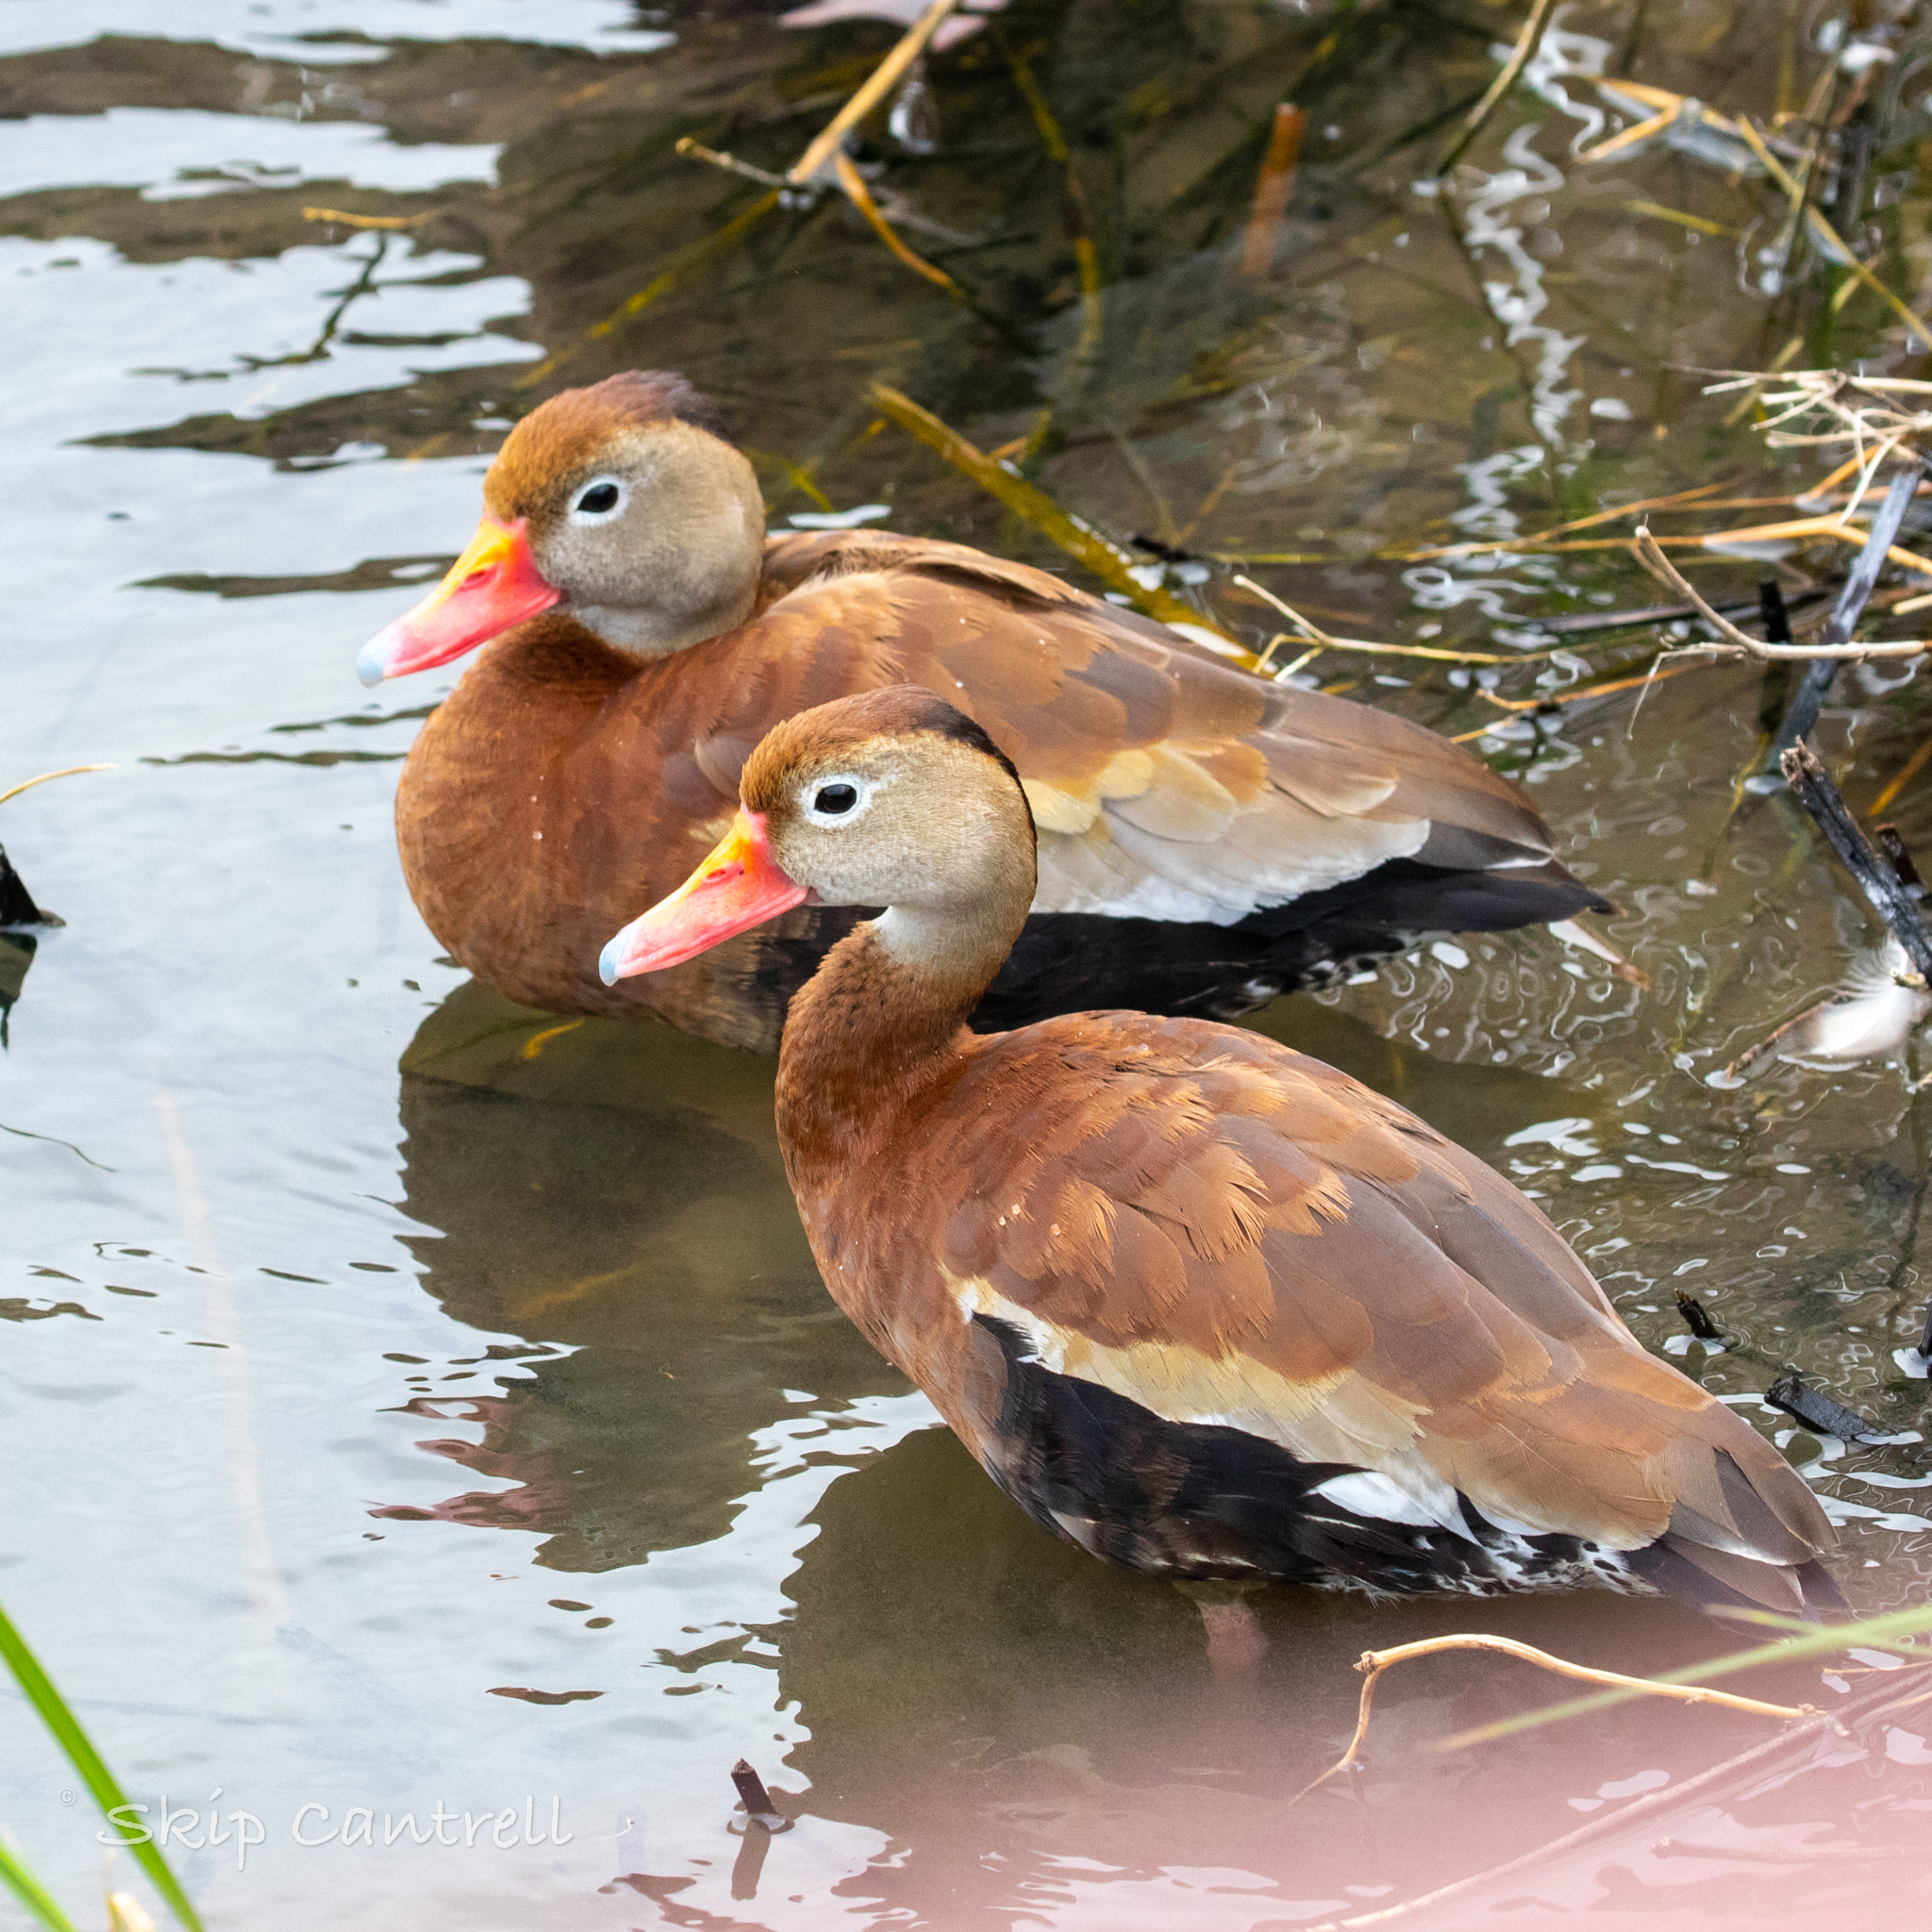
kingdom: Animalia
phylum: Chordata
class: Aves
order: Anseriformes
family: Anatidae
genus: Dendrocygna
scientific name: Dendrocygna autumnalis
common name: Black-bellied whistling duck
